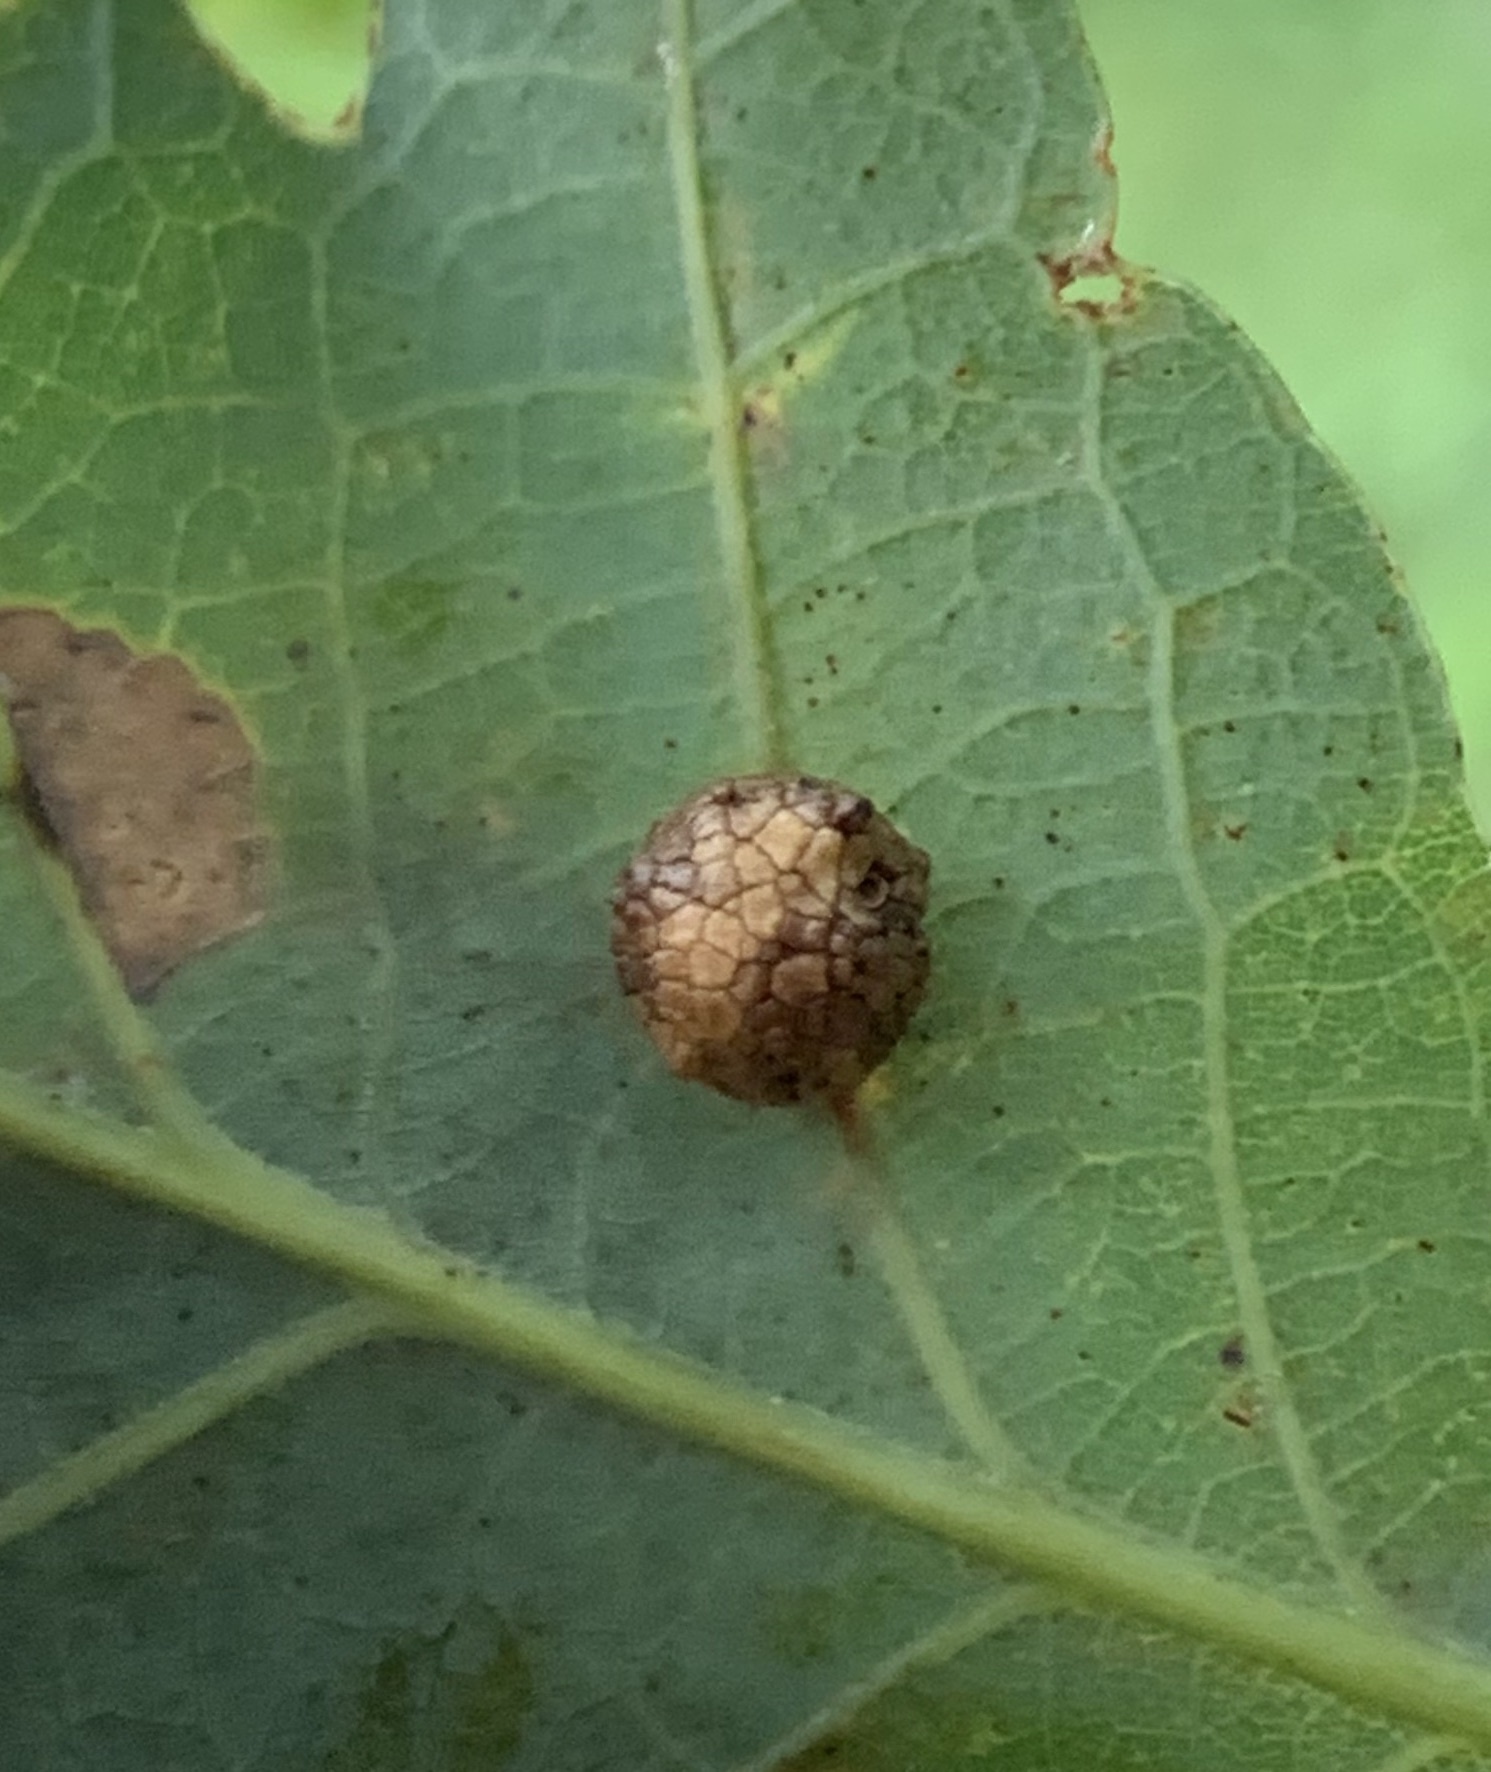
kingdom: Animalia
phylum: Arthropoda
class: Insecta
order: Hymenoptera
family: Cynipidae
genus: Acraspis
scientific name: Acraspis
